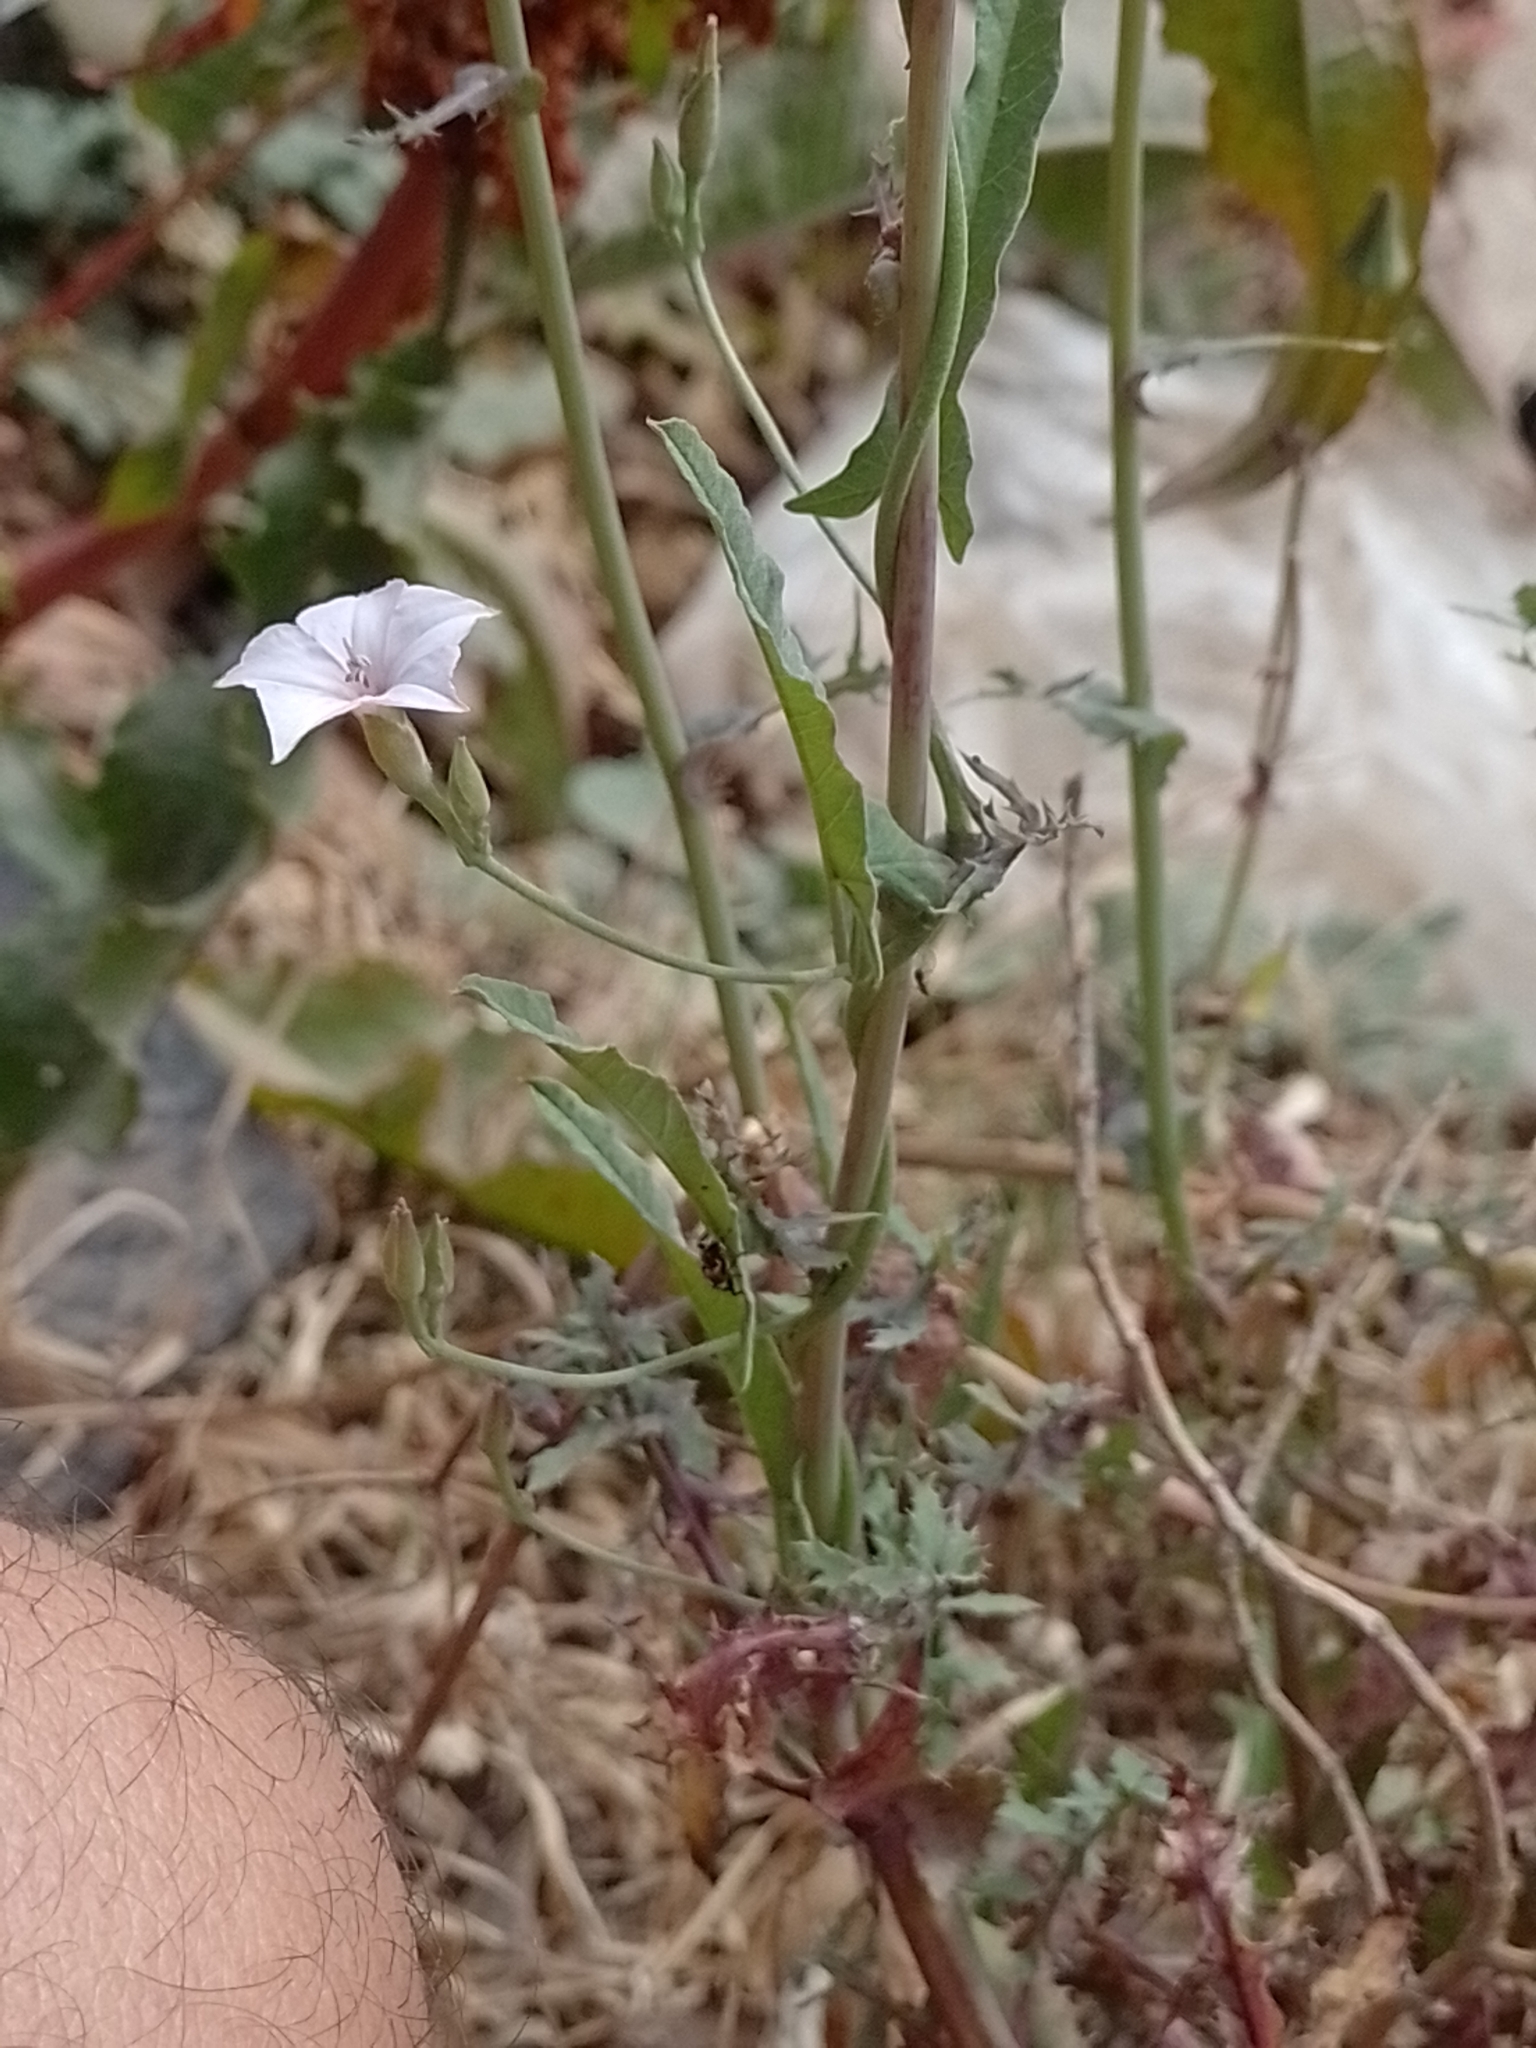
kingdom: Plantae
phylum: Tracheophyta
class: Magnoliopsida
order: Solanales
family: Convolvulaceae
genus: Convolvulus
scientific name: Convolvulus bonariensis
